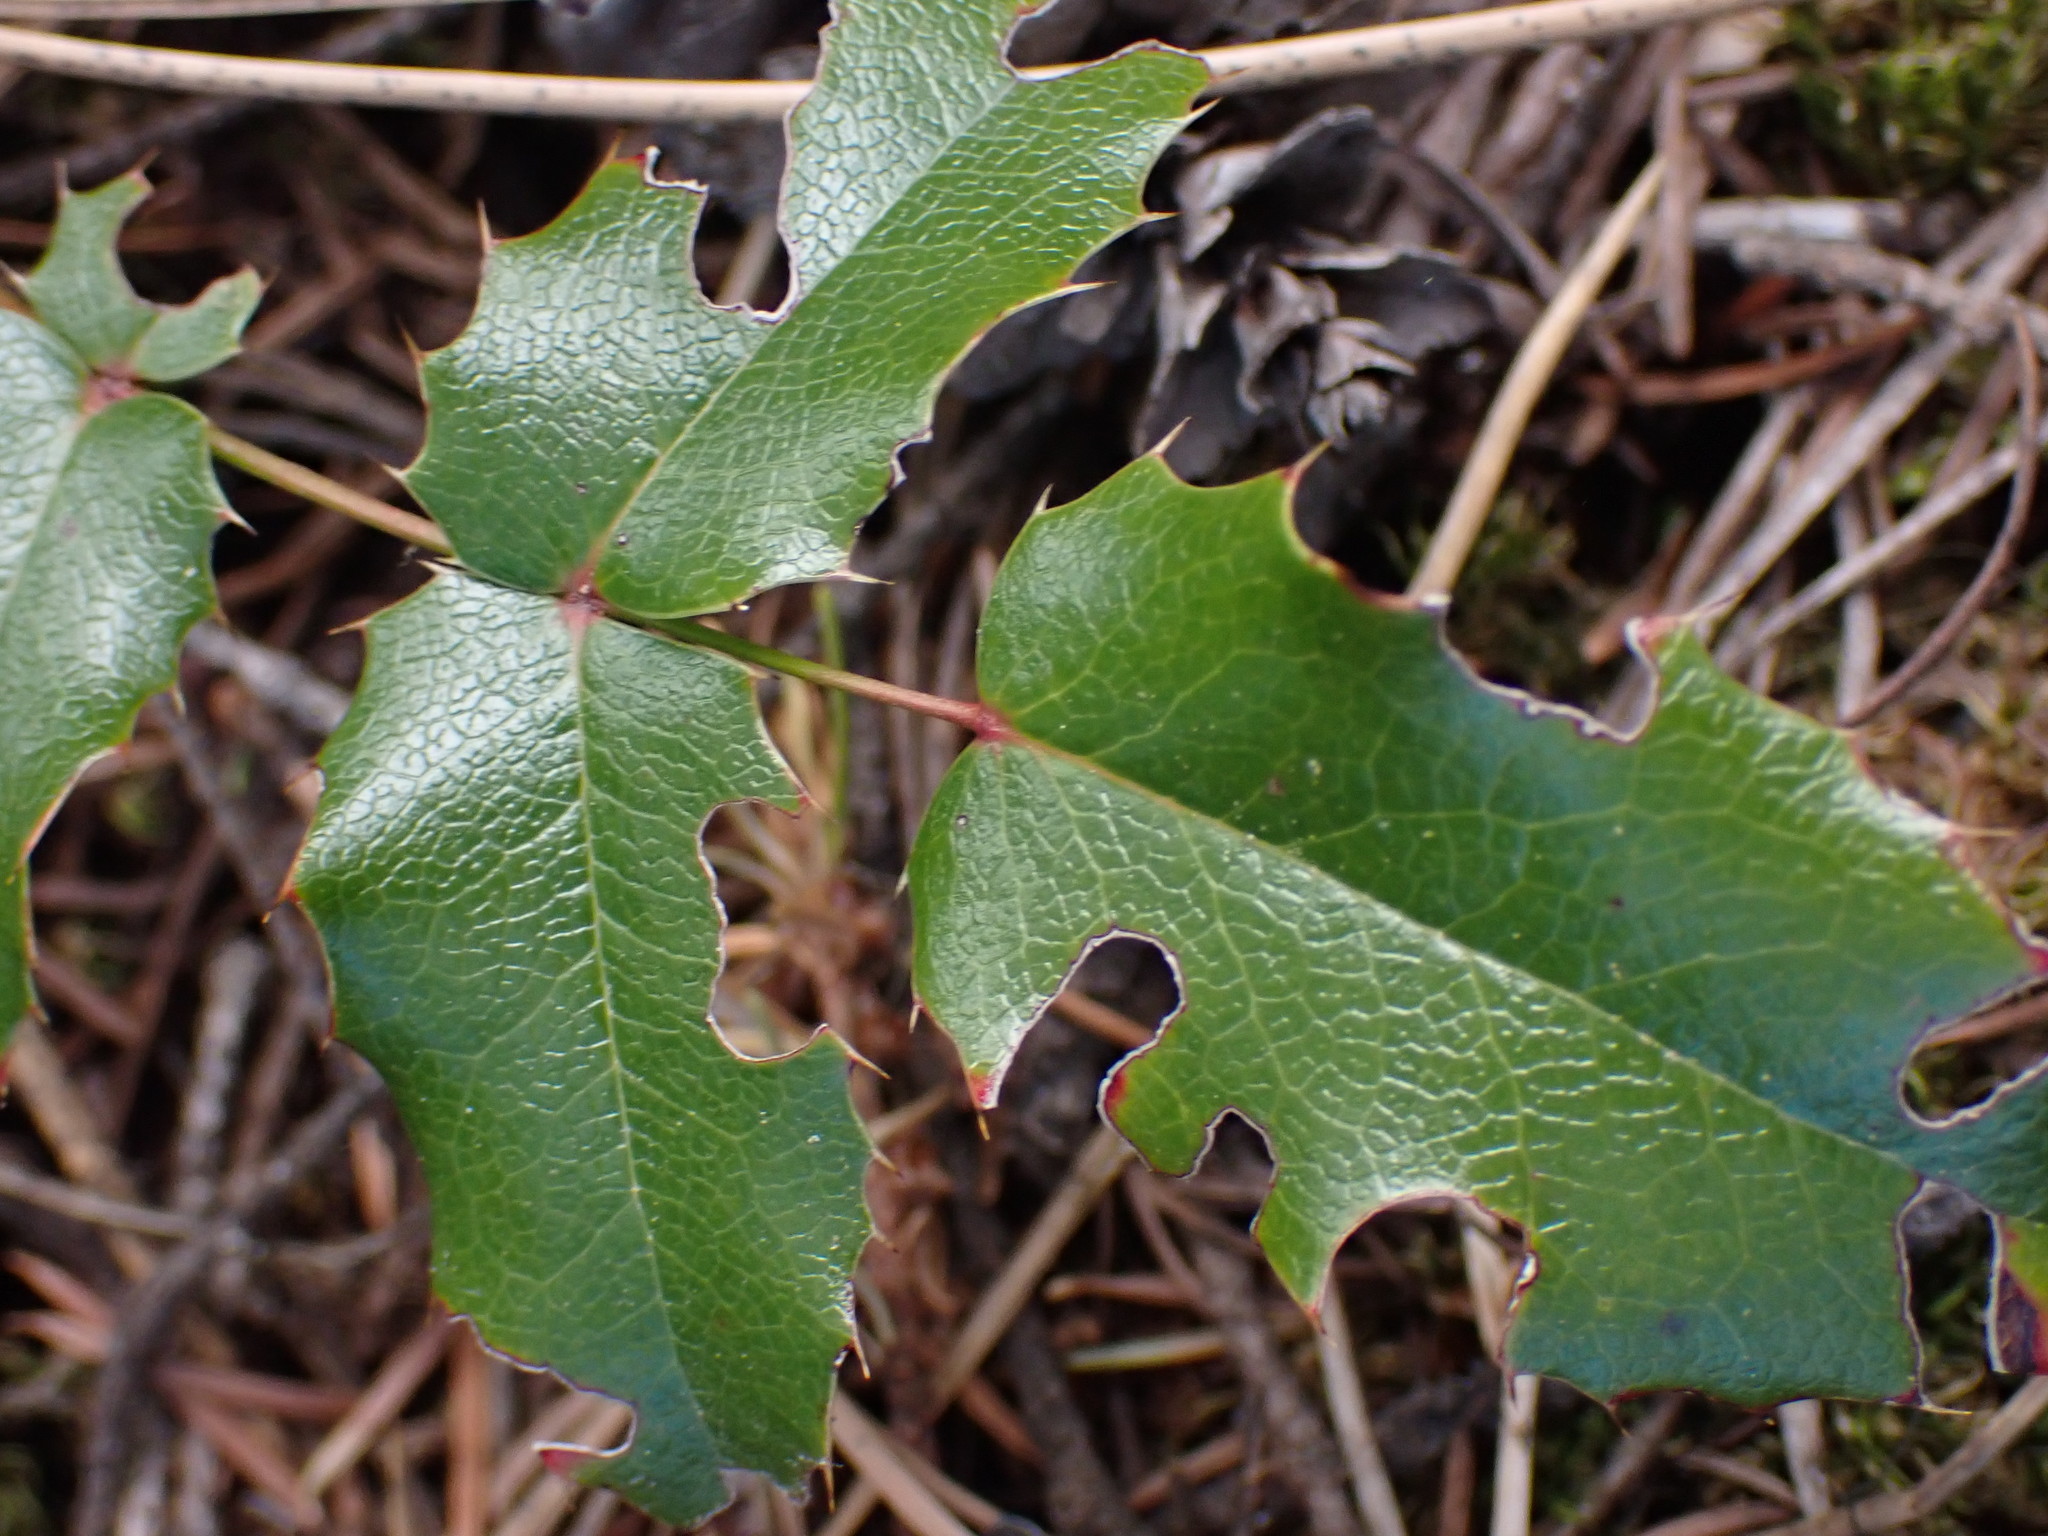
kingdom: Plantae
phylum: Tracheophyta
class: Magnoliopsida
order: Ranunculales
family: Berberidaceae
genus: Mahonia
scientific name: Mahonia aquifolium
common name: Oregon-grape
